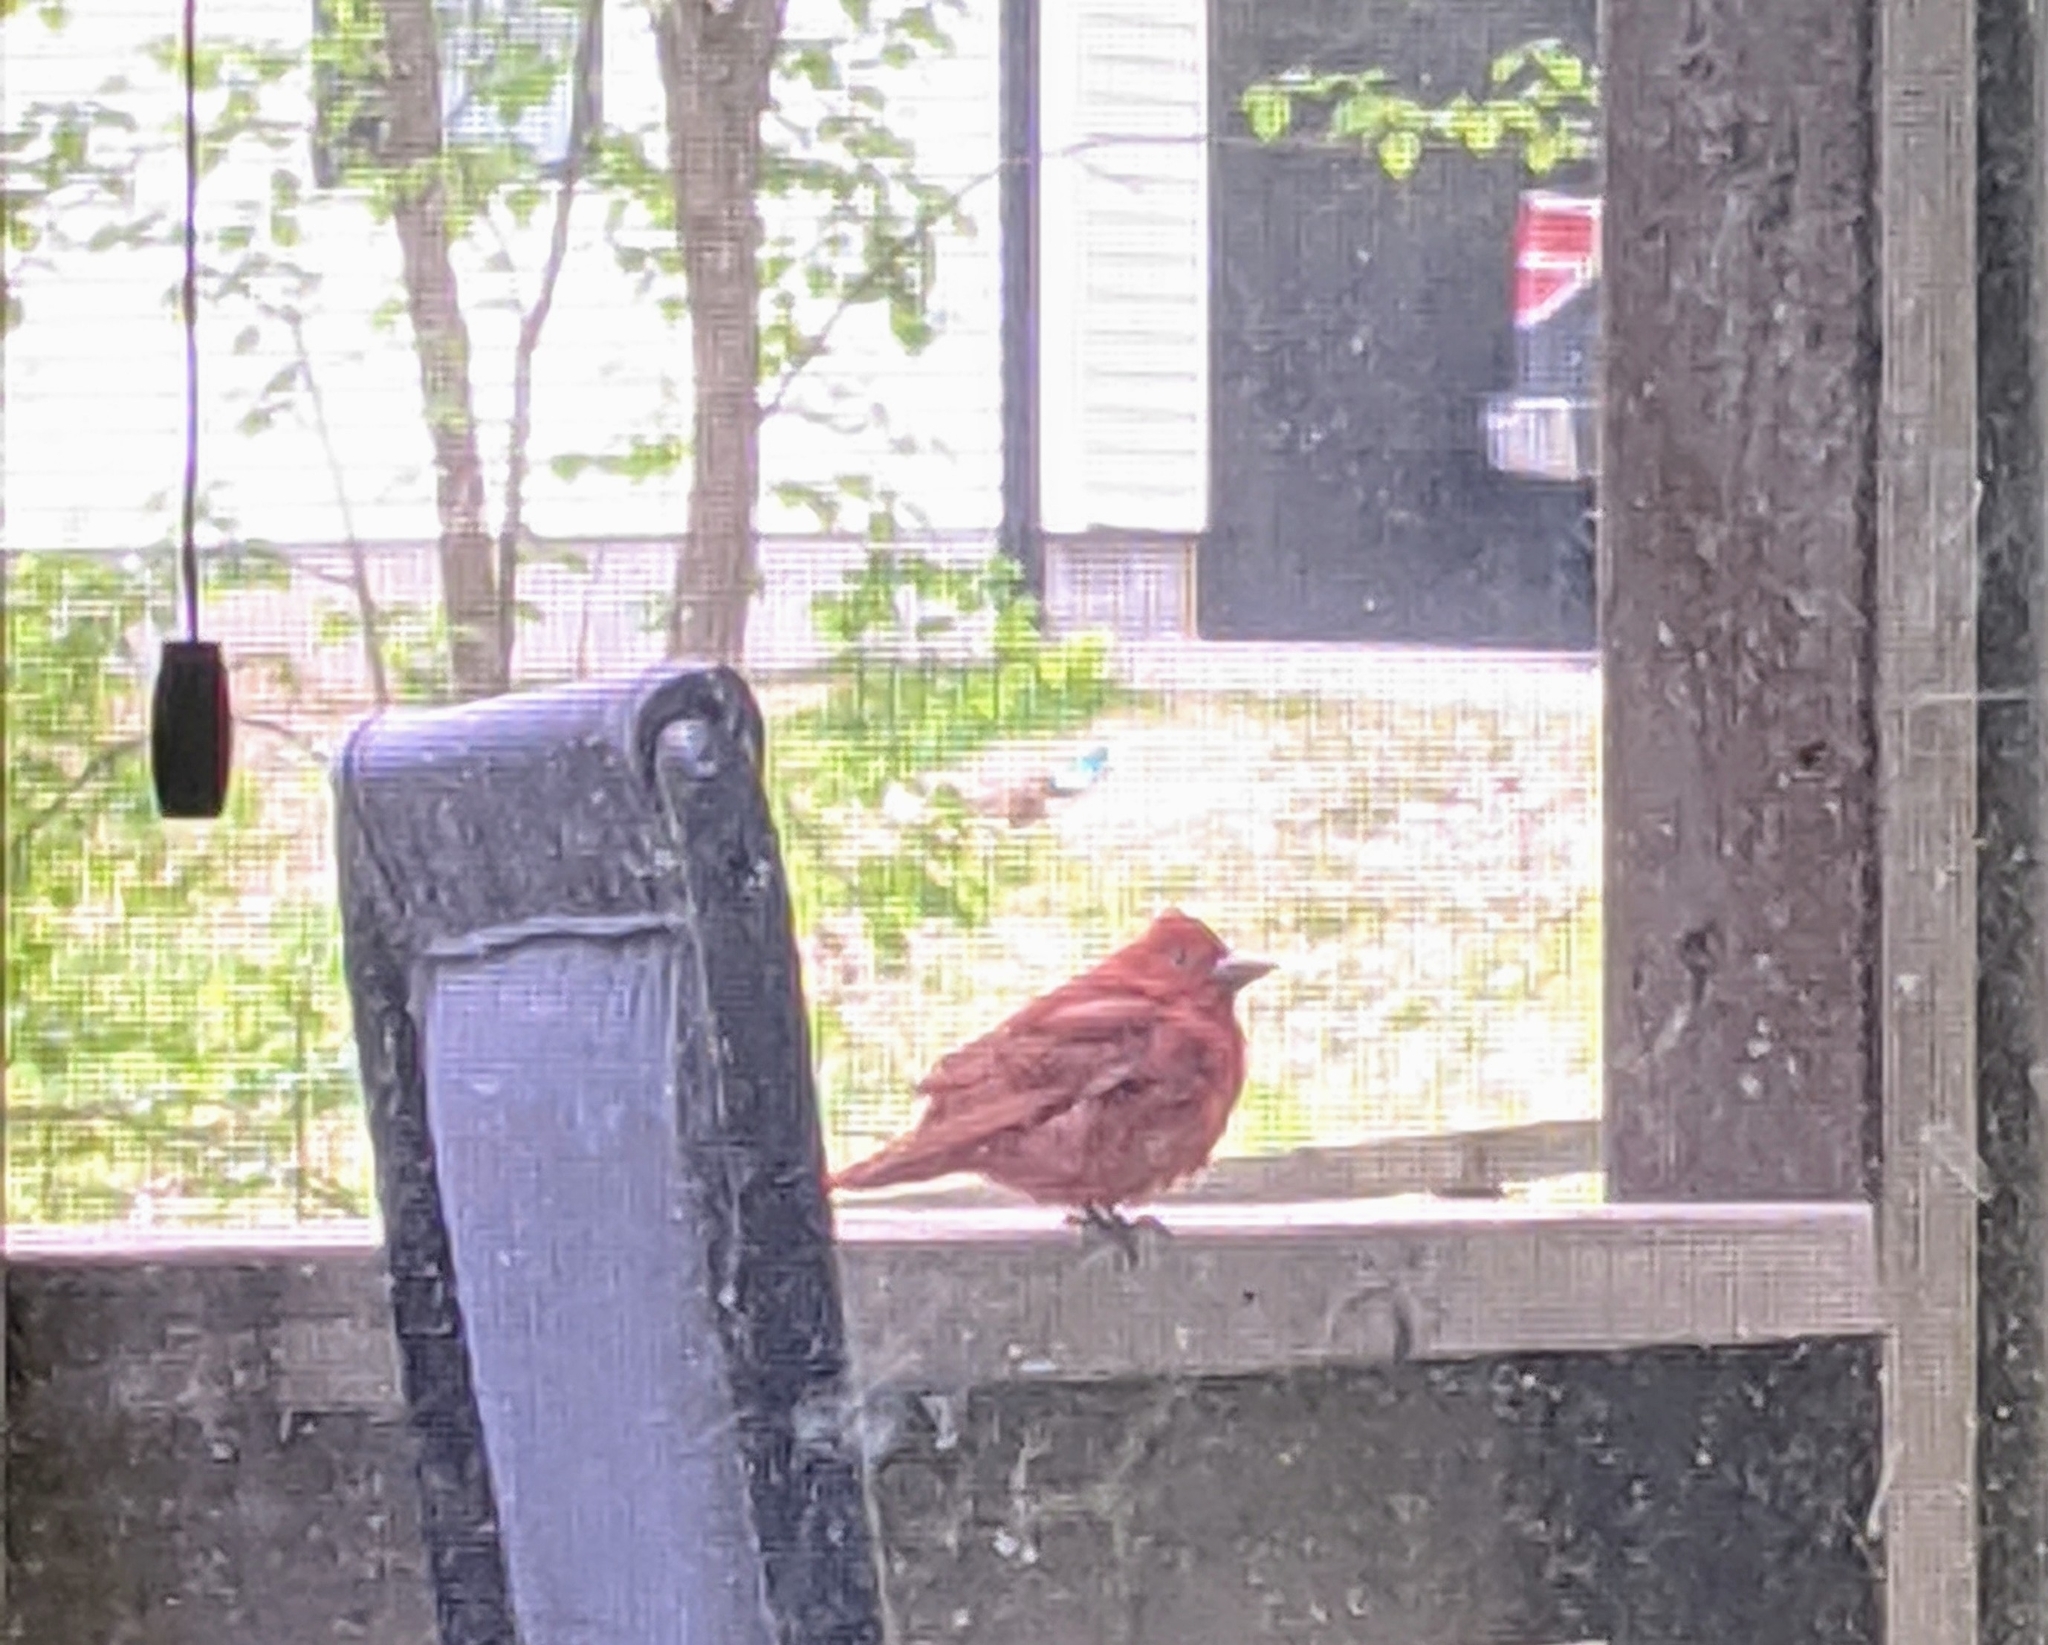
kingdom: Animalia
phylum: Chordata
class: Aves
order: Passeriformes
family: Cardinalidae
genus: Piranga
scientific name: Piranga rubra
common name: Summer tanager
